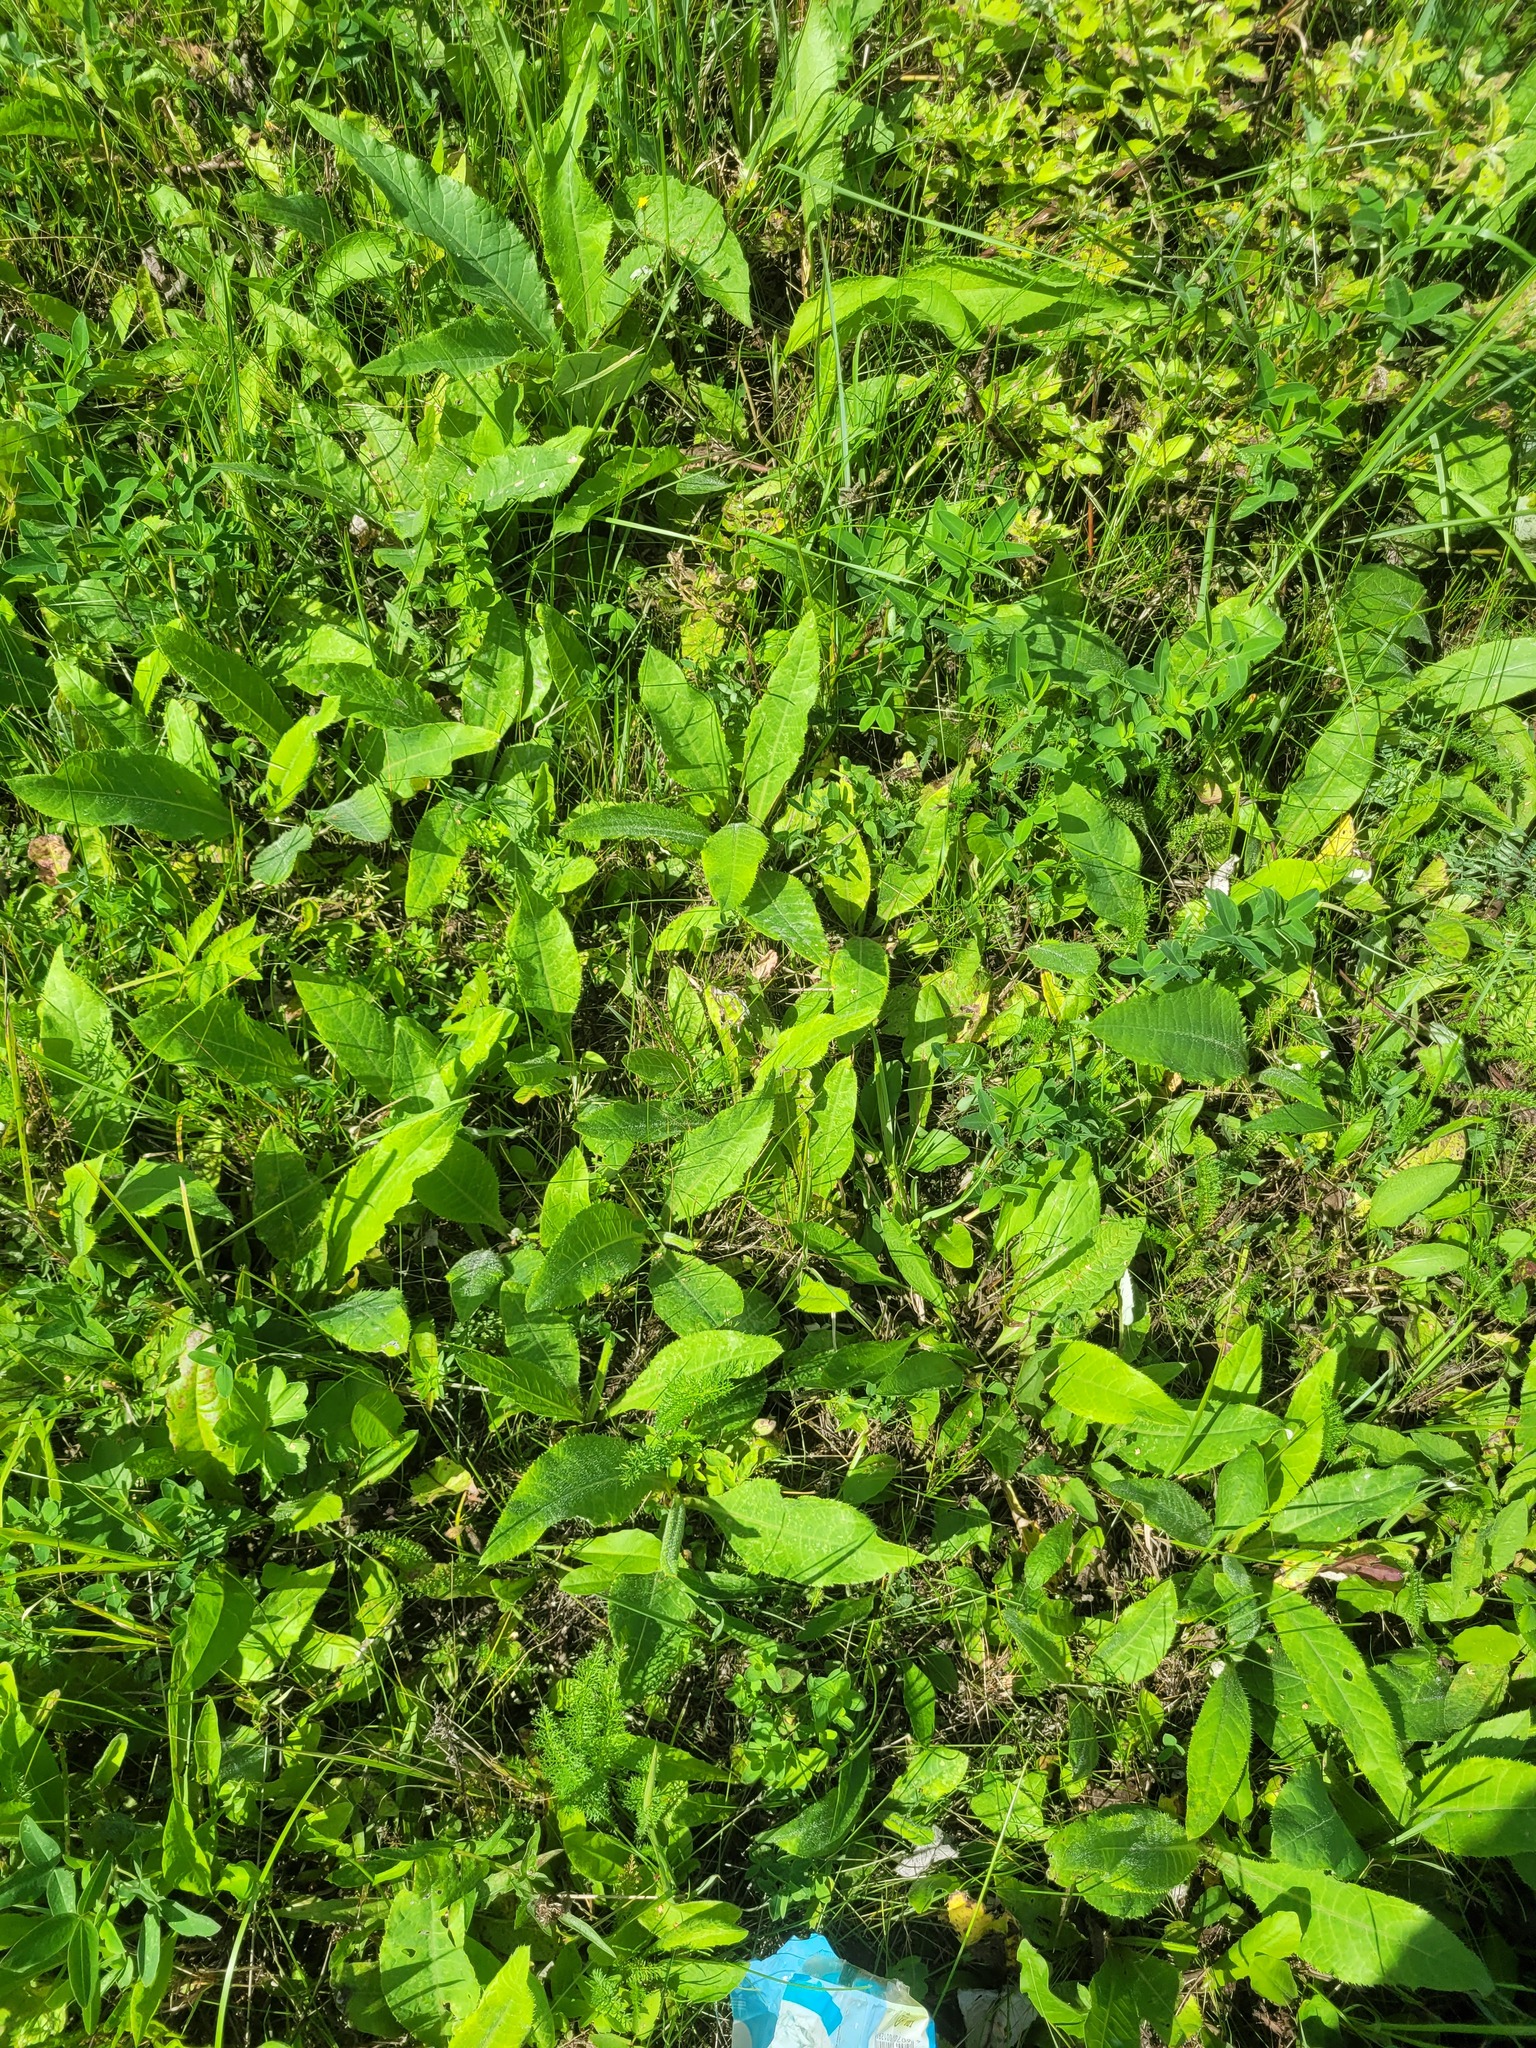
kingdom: Plantae
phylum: Tracheophyta
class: Magnoliopsida
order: Asterales
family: Asteraceae
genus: Cirsium
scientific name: Cirsium heterophyllum
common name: Melancholy thistle
